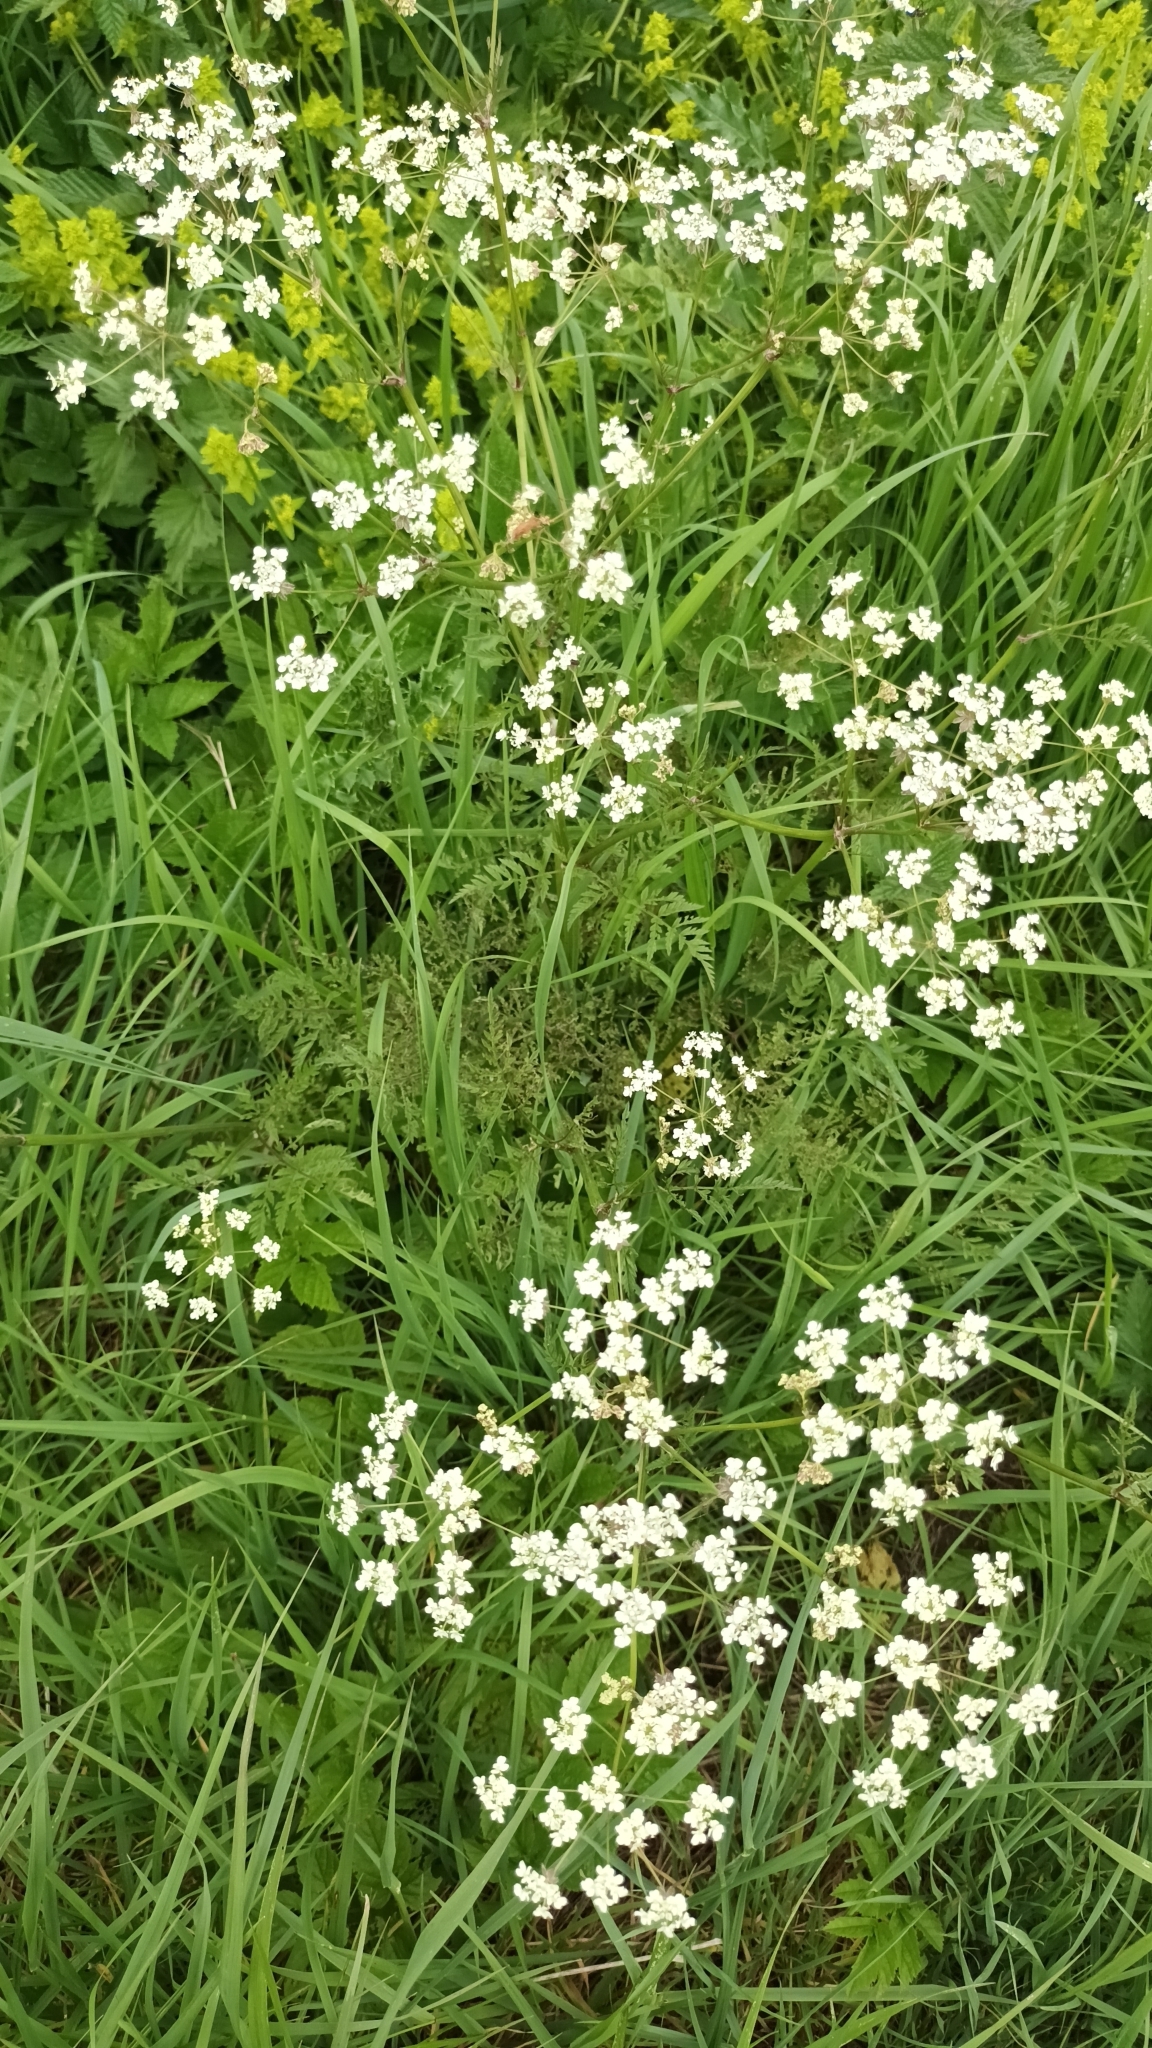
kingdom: Plantae
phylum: Tracheophyta
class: Magnoliopsida
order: Apiales
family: Apiaceae
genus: Anthriscus
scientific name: Anthriscus sylvestris
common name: Cow parsley
